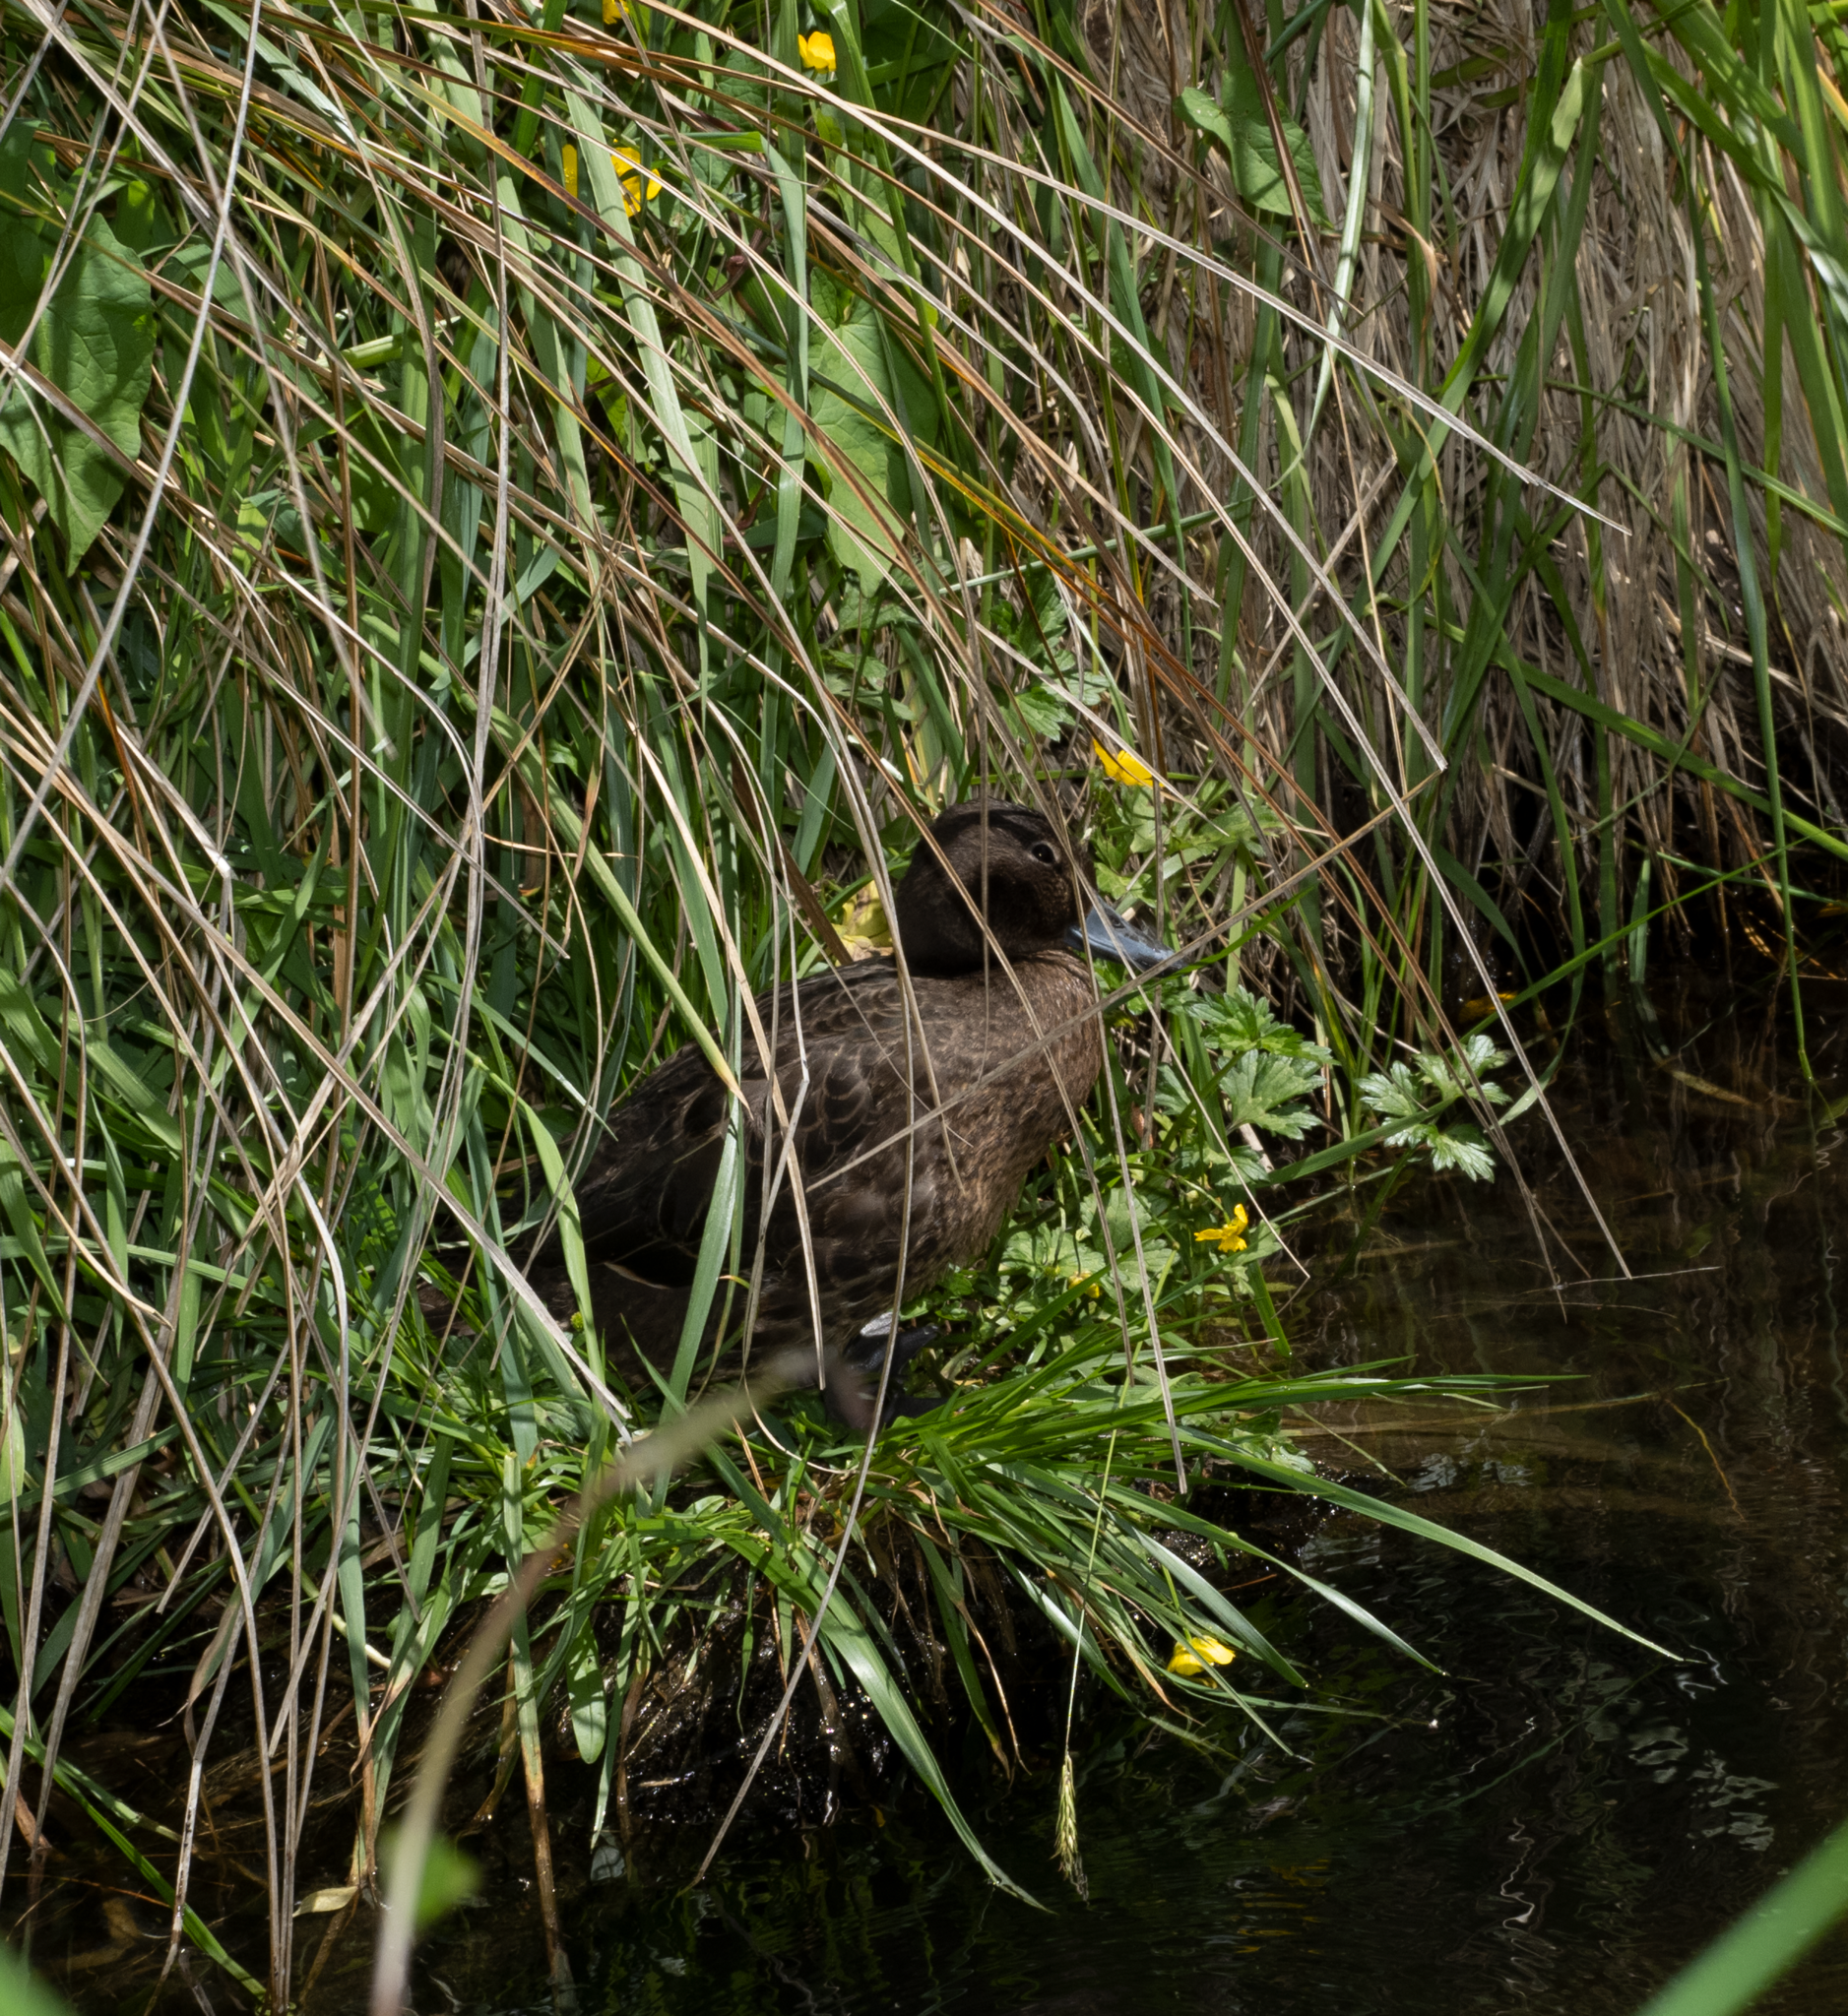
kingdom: Animalia
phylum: Chordata
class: Aves
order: Anseriformes
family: Anatidae
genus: Anas
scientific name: Anas chlorotis
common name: Brown teal
